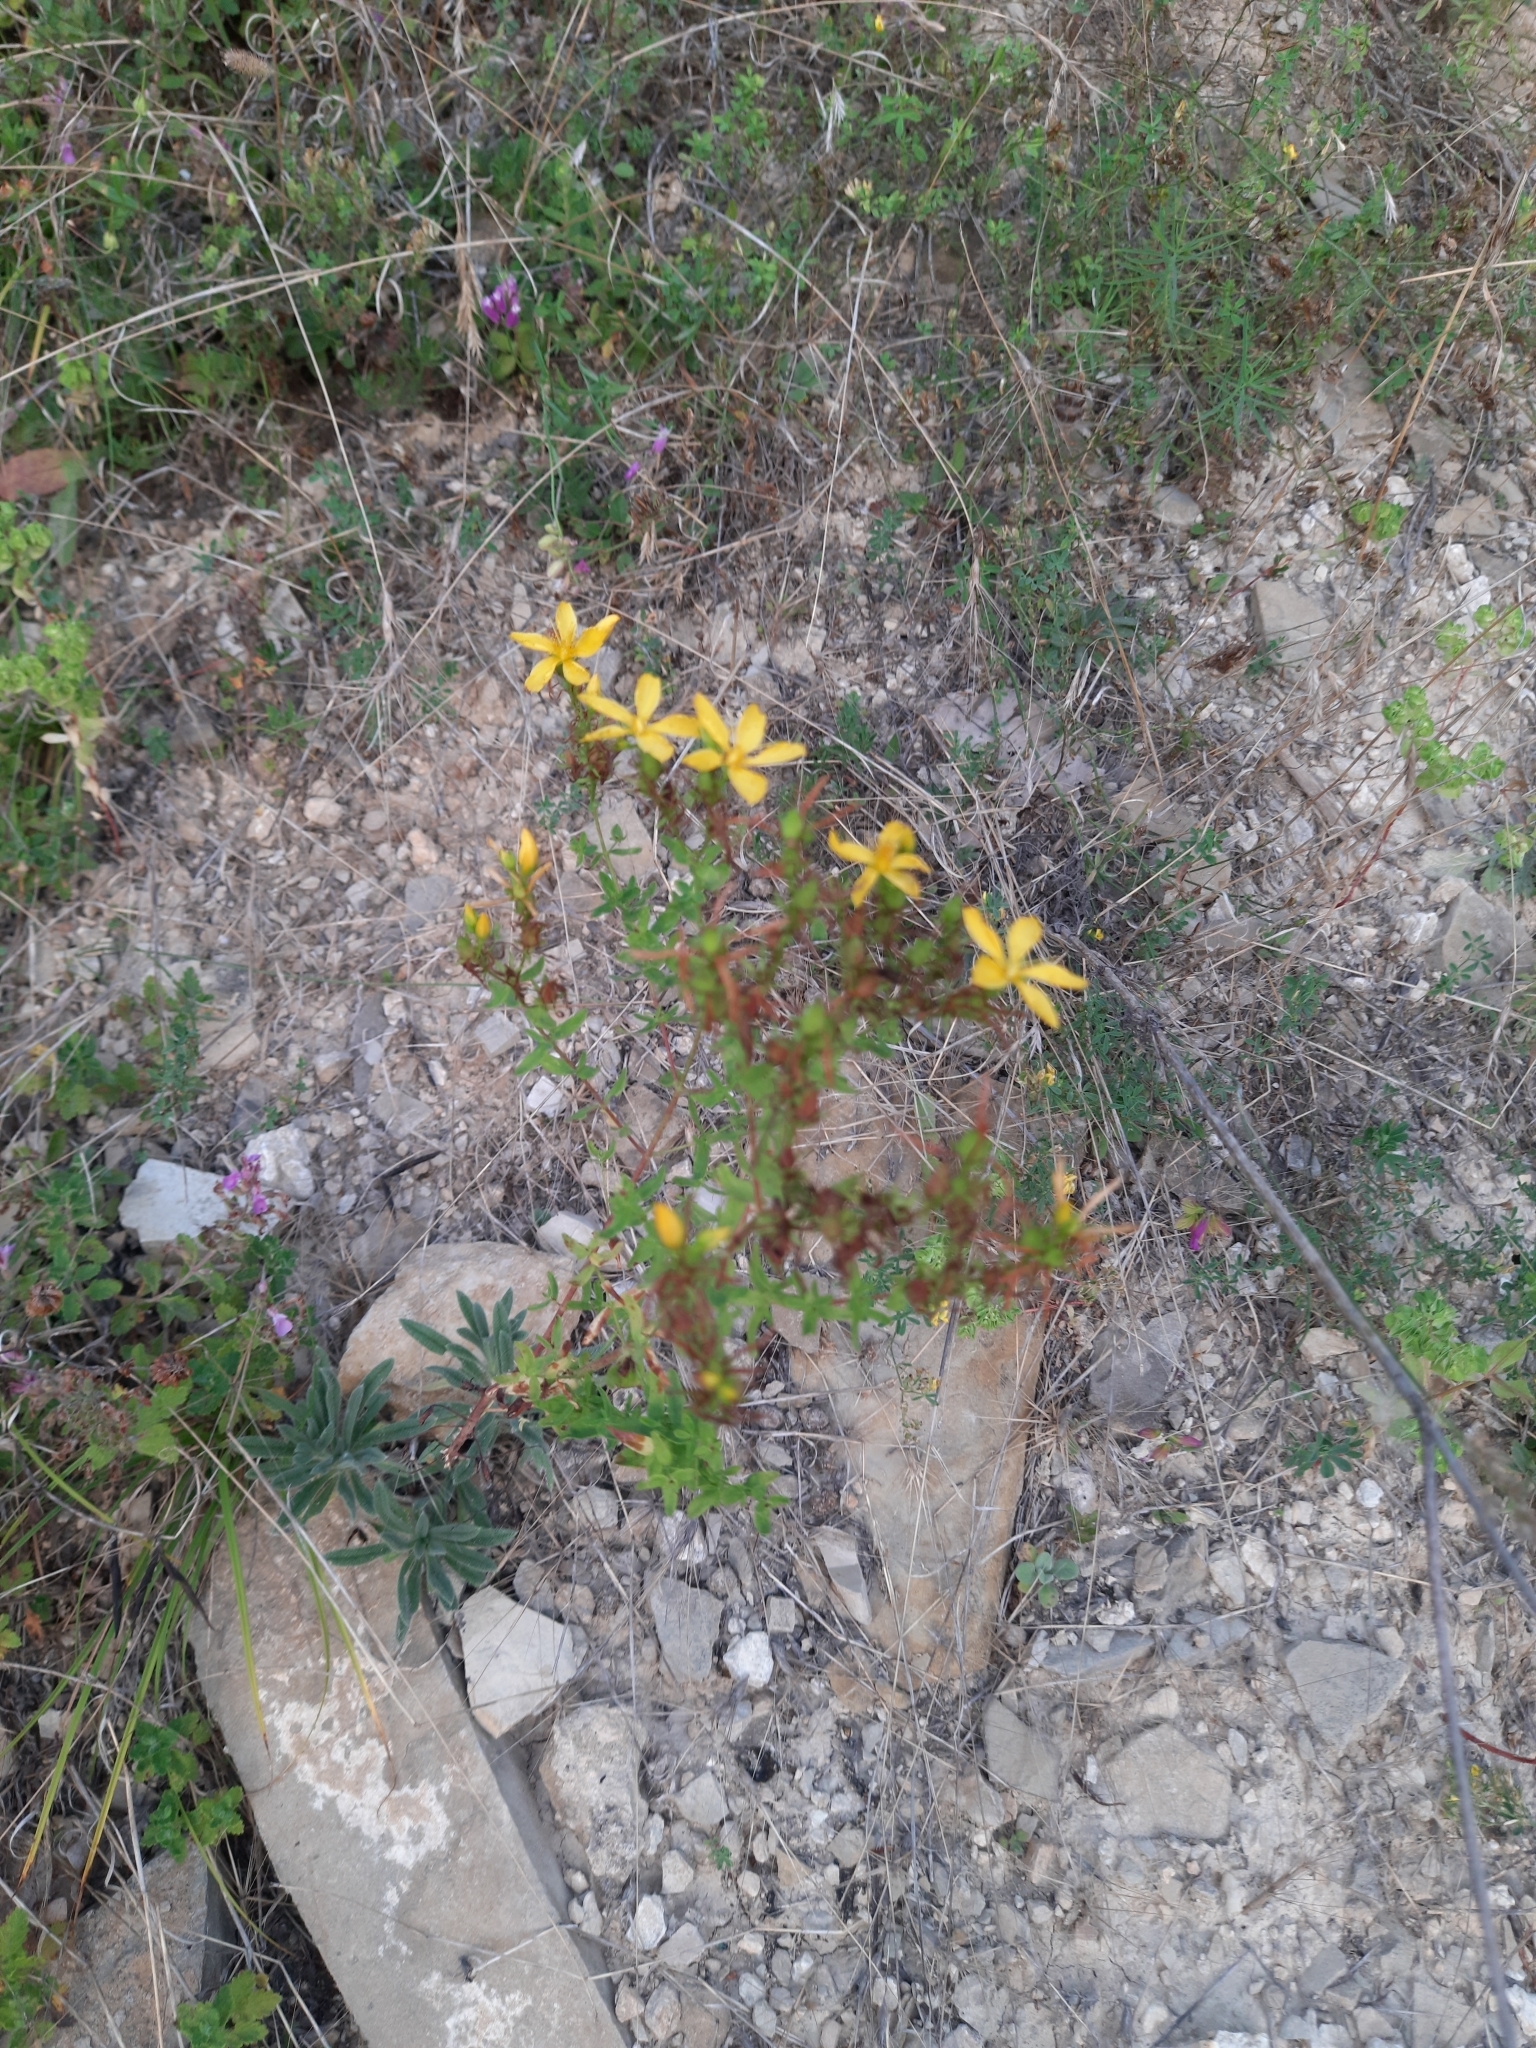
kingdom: Plantae
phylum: Tracheophyta
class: Magnoliopsida
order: Malpighiales
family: Hypericaceae
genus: Hypericum
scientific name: Hypericum perforatum
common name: Common st. johnswort
